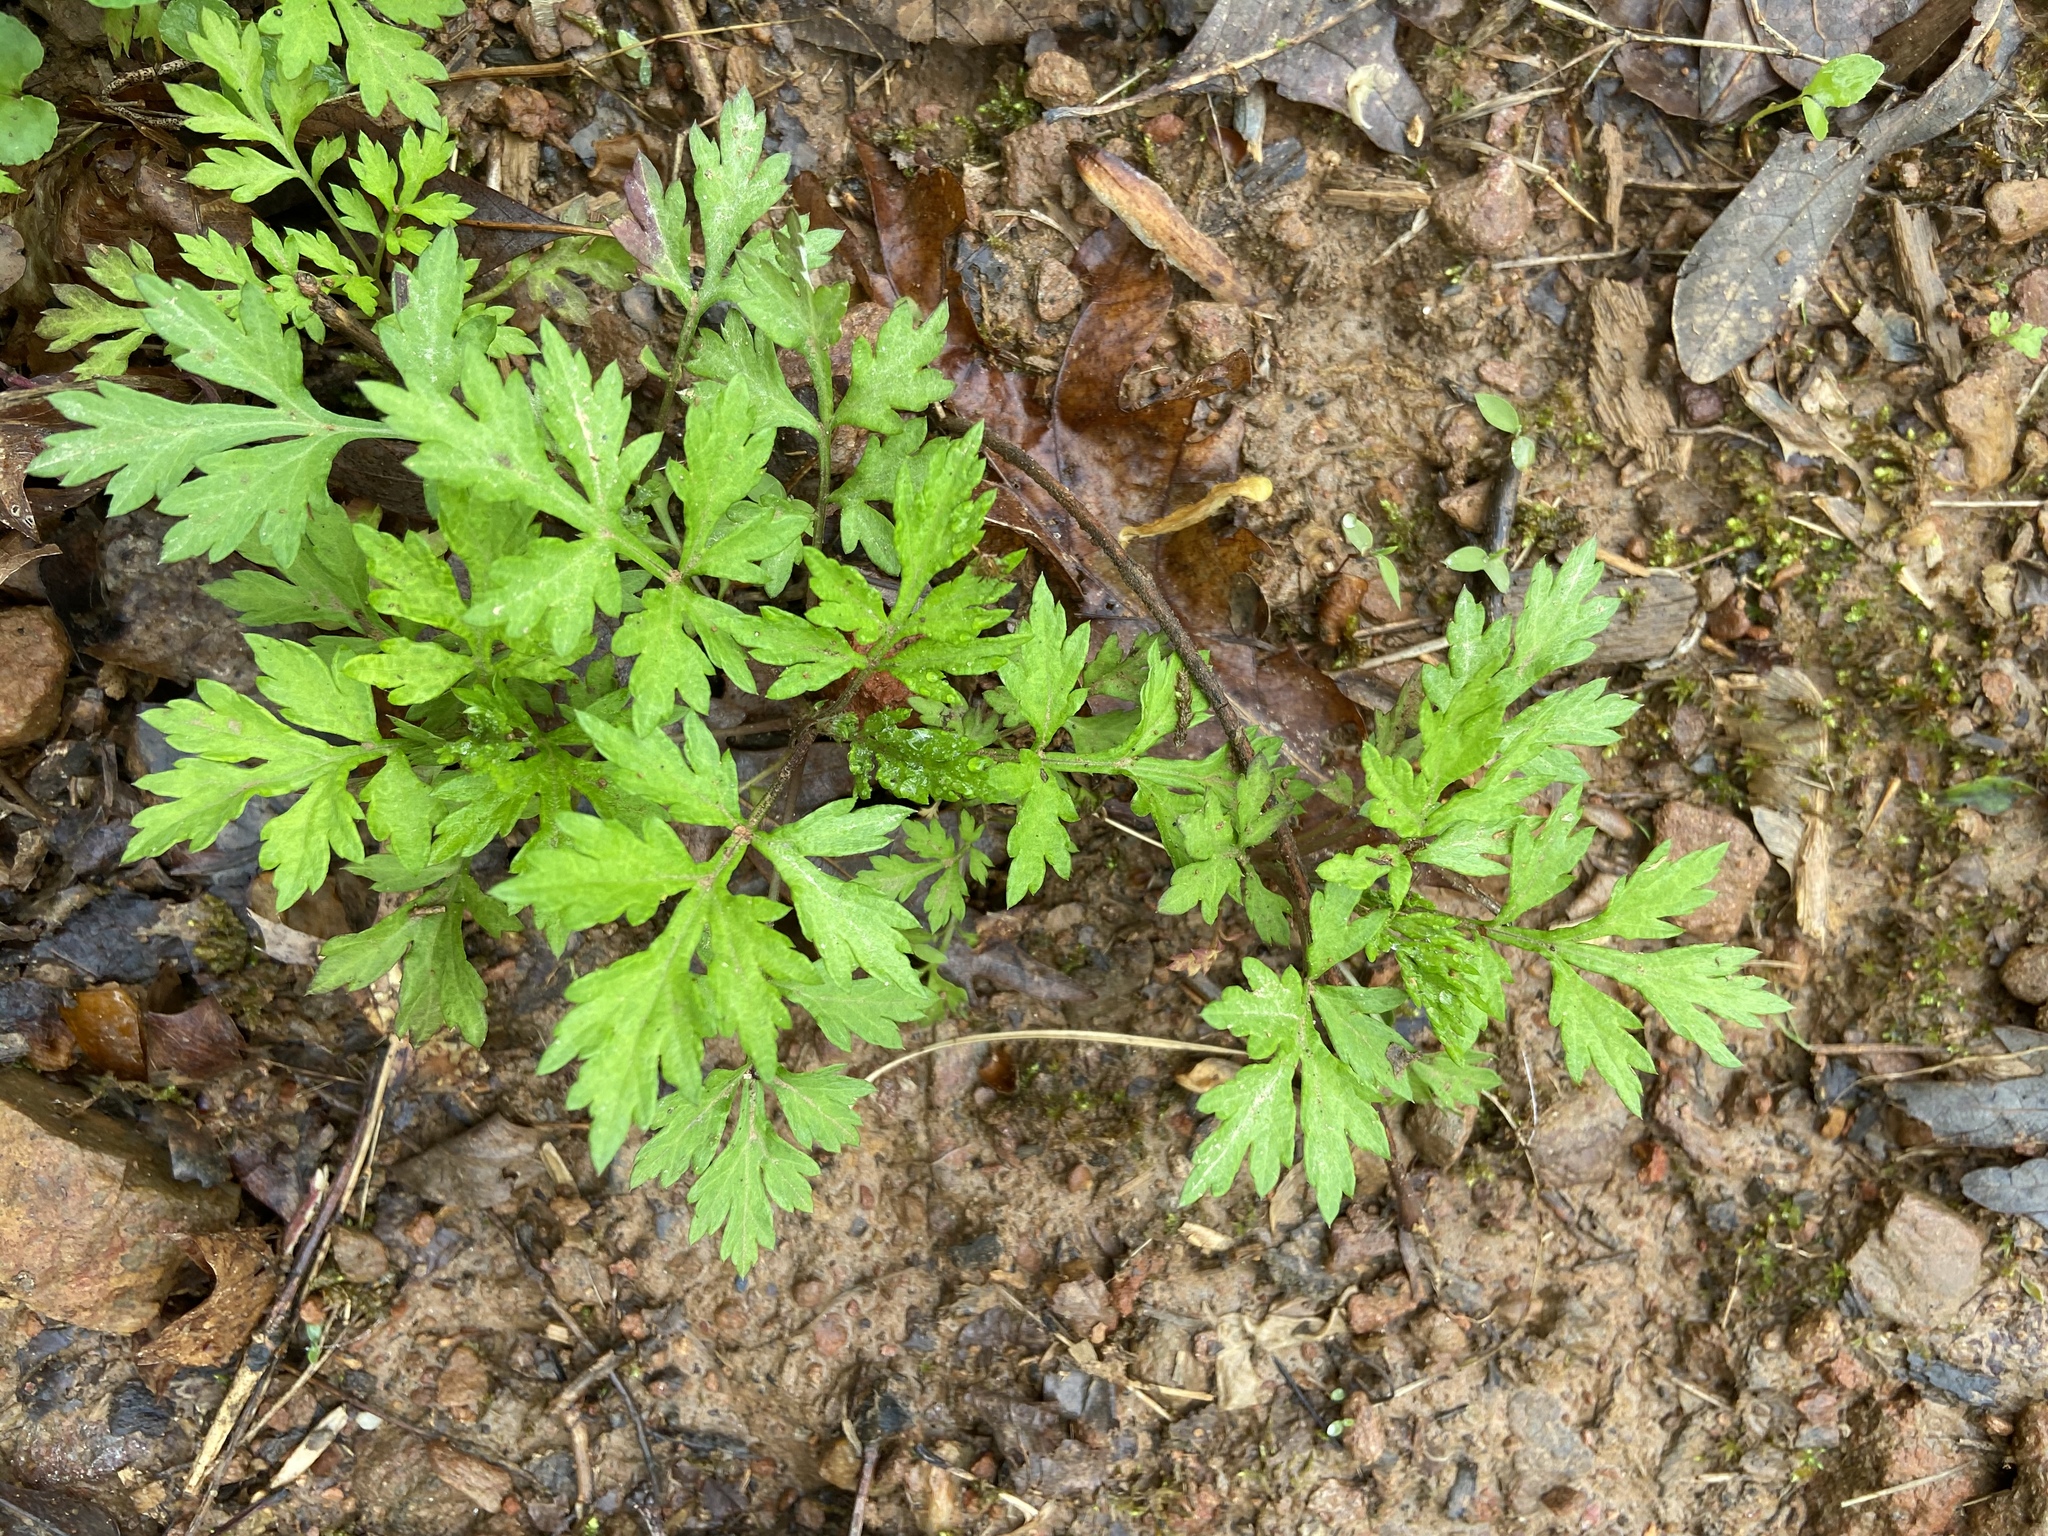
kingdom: Plantae
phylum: Tracheophyta
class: Magnoliopsida
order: Asterales
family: Asteraceae
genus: Artemisia
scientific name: Artemisia vulgaris
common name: Mugwort
